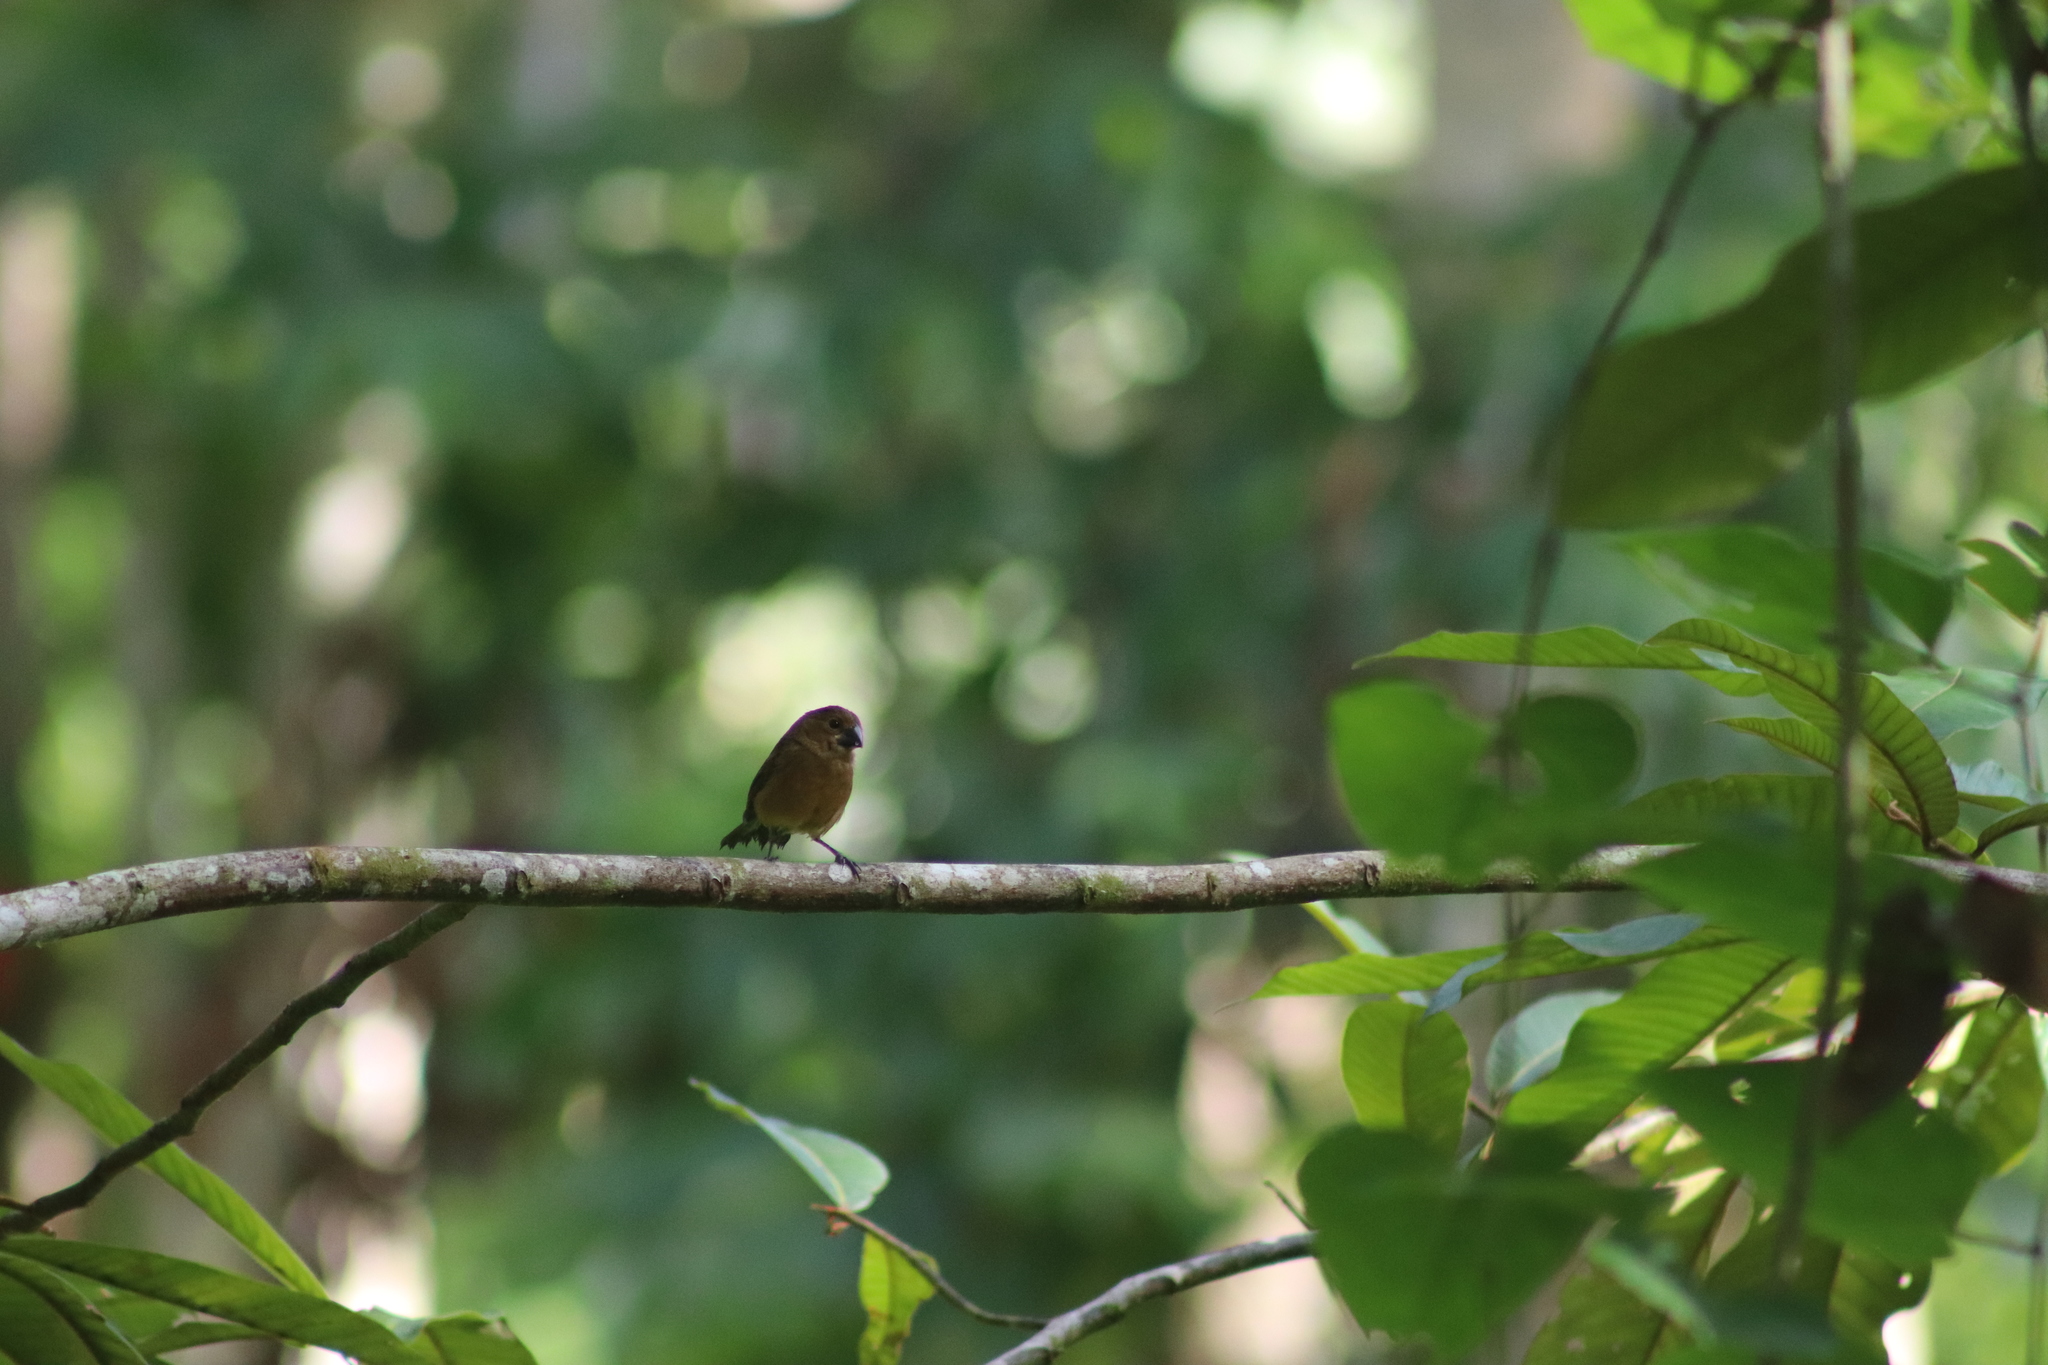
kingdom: Animalia
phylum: Chordata
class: Aves
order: Passeriformes
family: Thraupidae
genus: Sporophila
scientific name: Sporophila funerea
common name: Thick-billed seed-finch
